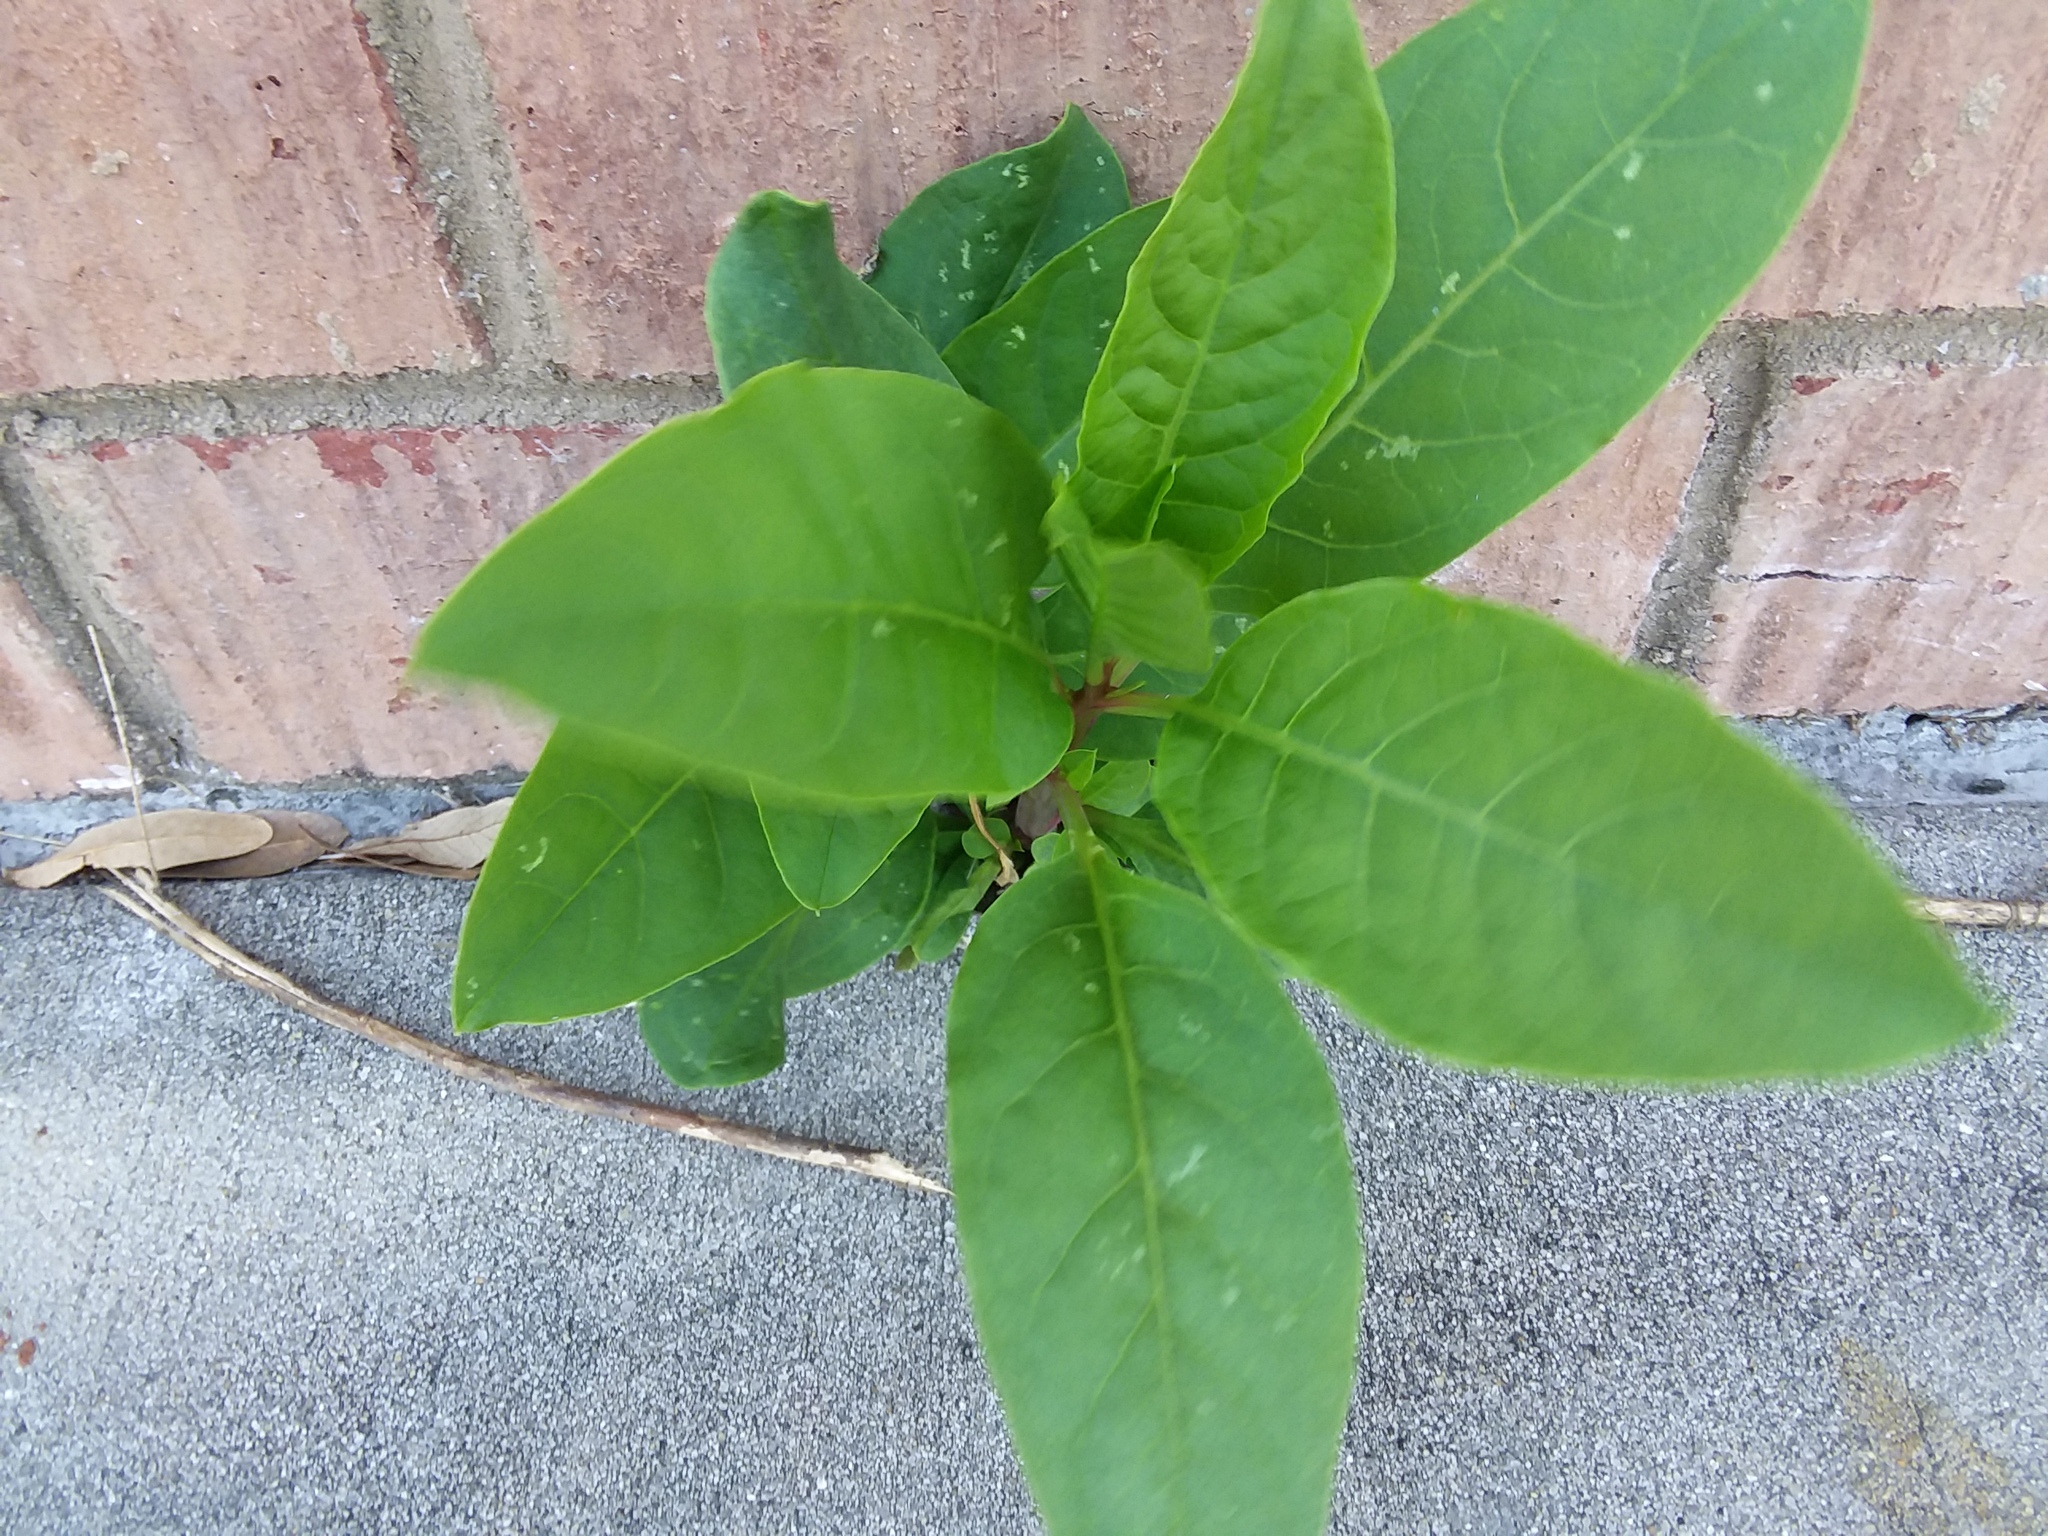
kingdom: Plantae
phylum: Tracheophyta
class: Magnoliopsida
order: Caryophyllales
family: Phytolaccaceae
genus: Phytolacca
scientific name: Phytolacca americana
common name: American pokeweed
